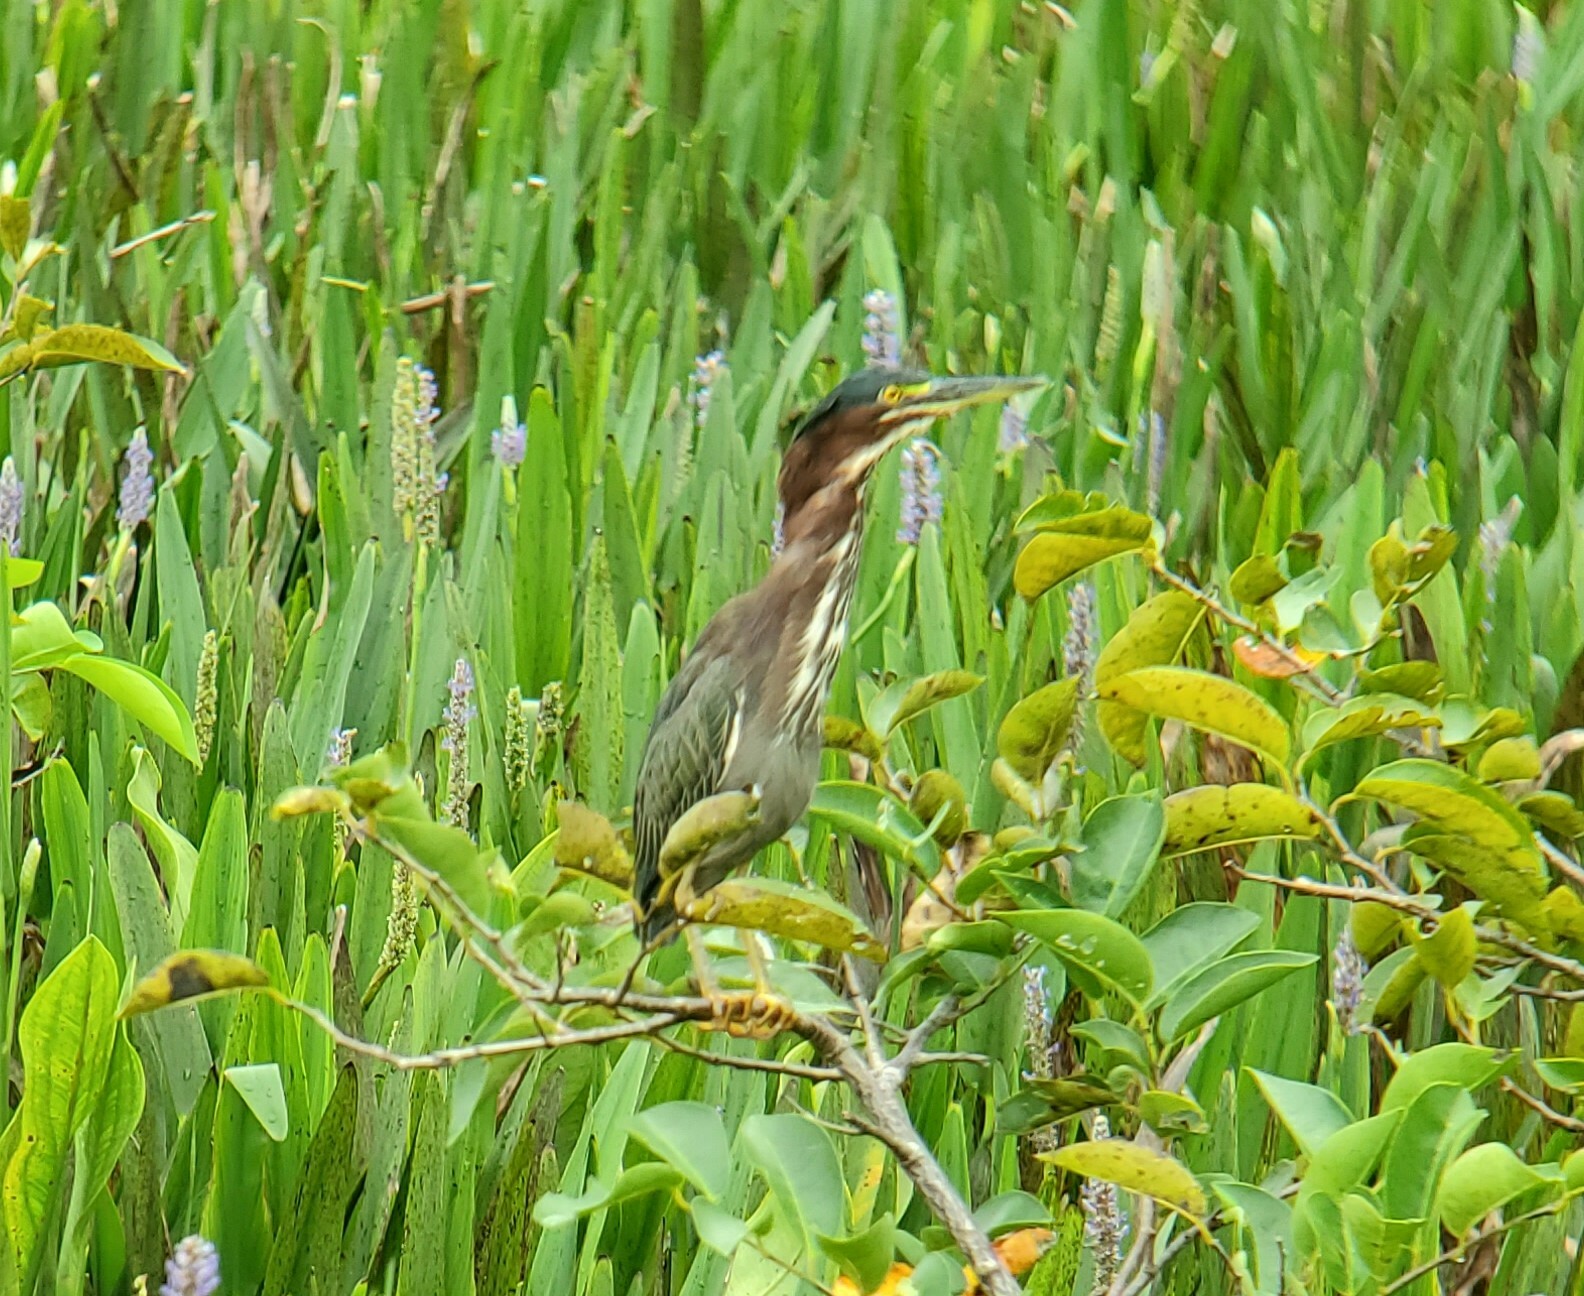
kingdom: Animalia
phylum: Chordata
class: Aves
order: Pelecaniformes
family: Ardeidae
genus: Butorides
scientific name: Butorides virescens
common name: Green heron
